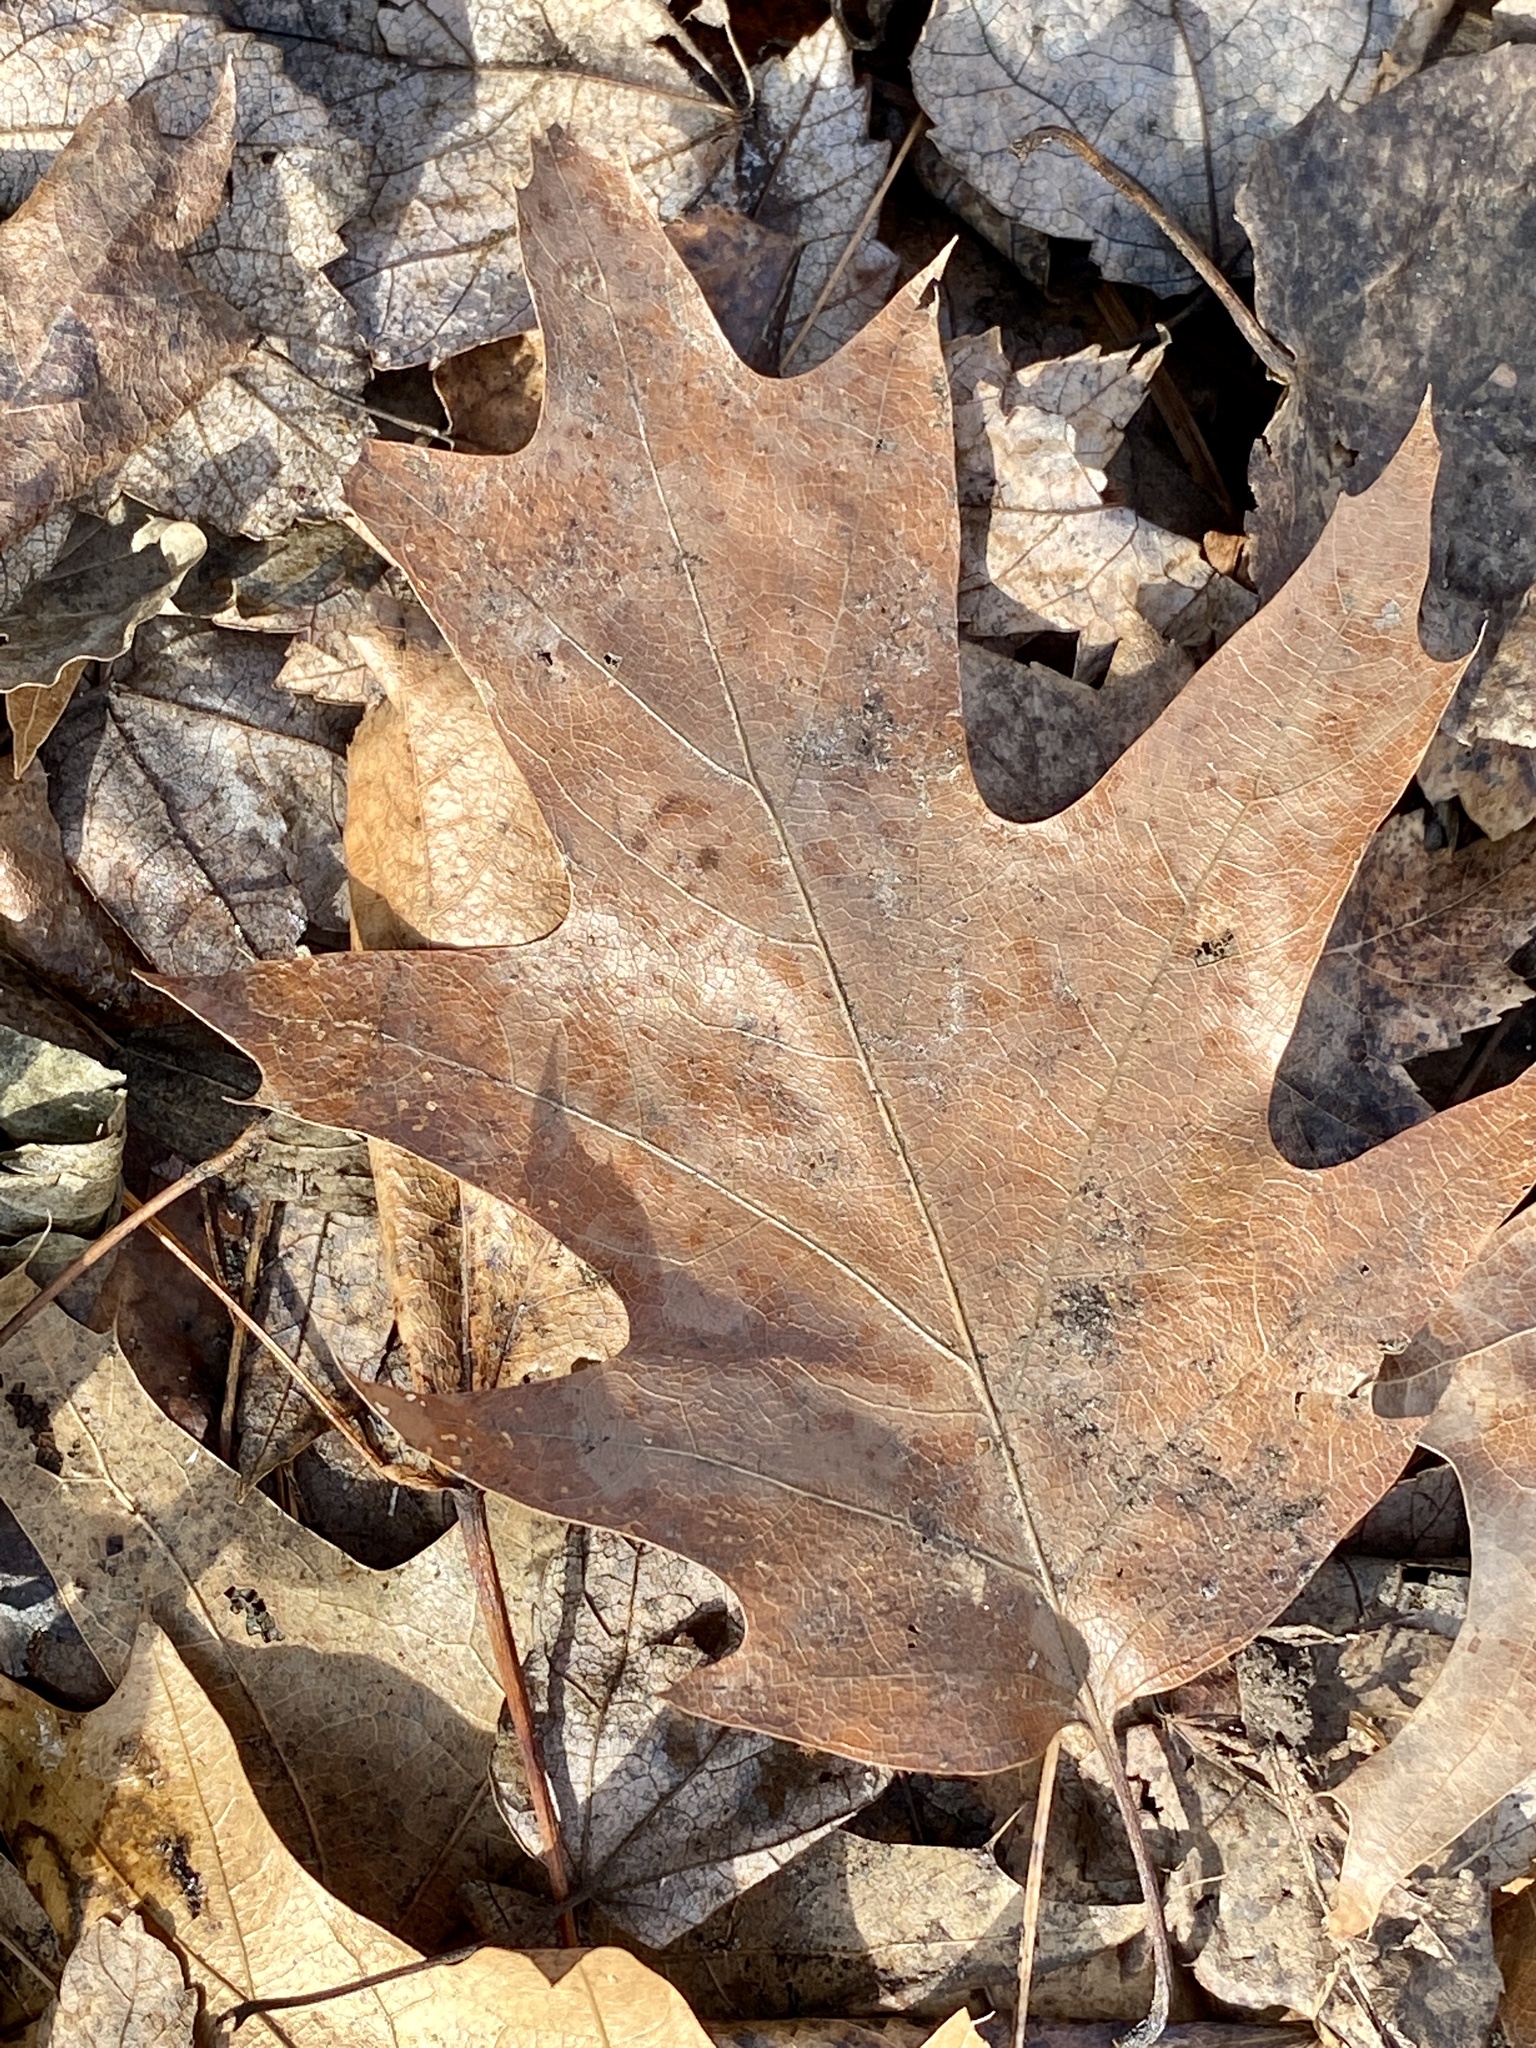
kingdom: Plantae
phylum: Tracheophyta
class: Magnoliopsida
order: Fagales
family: Fagaceae
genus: Quercus
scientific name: Quercus rubra
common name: Red oak
